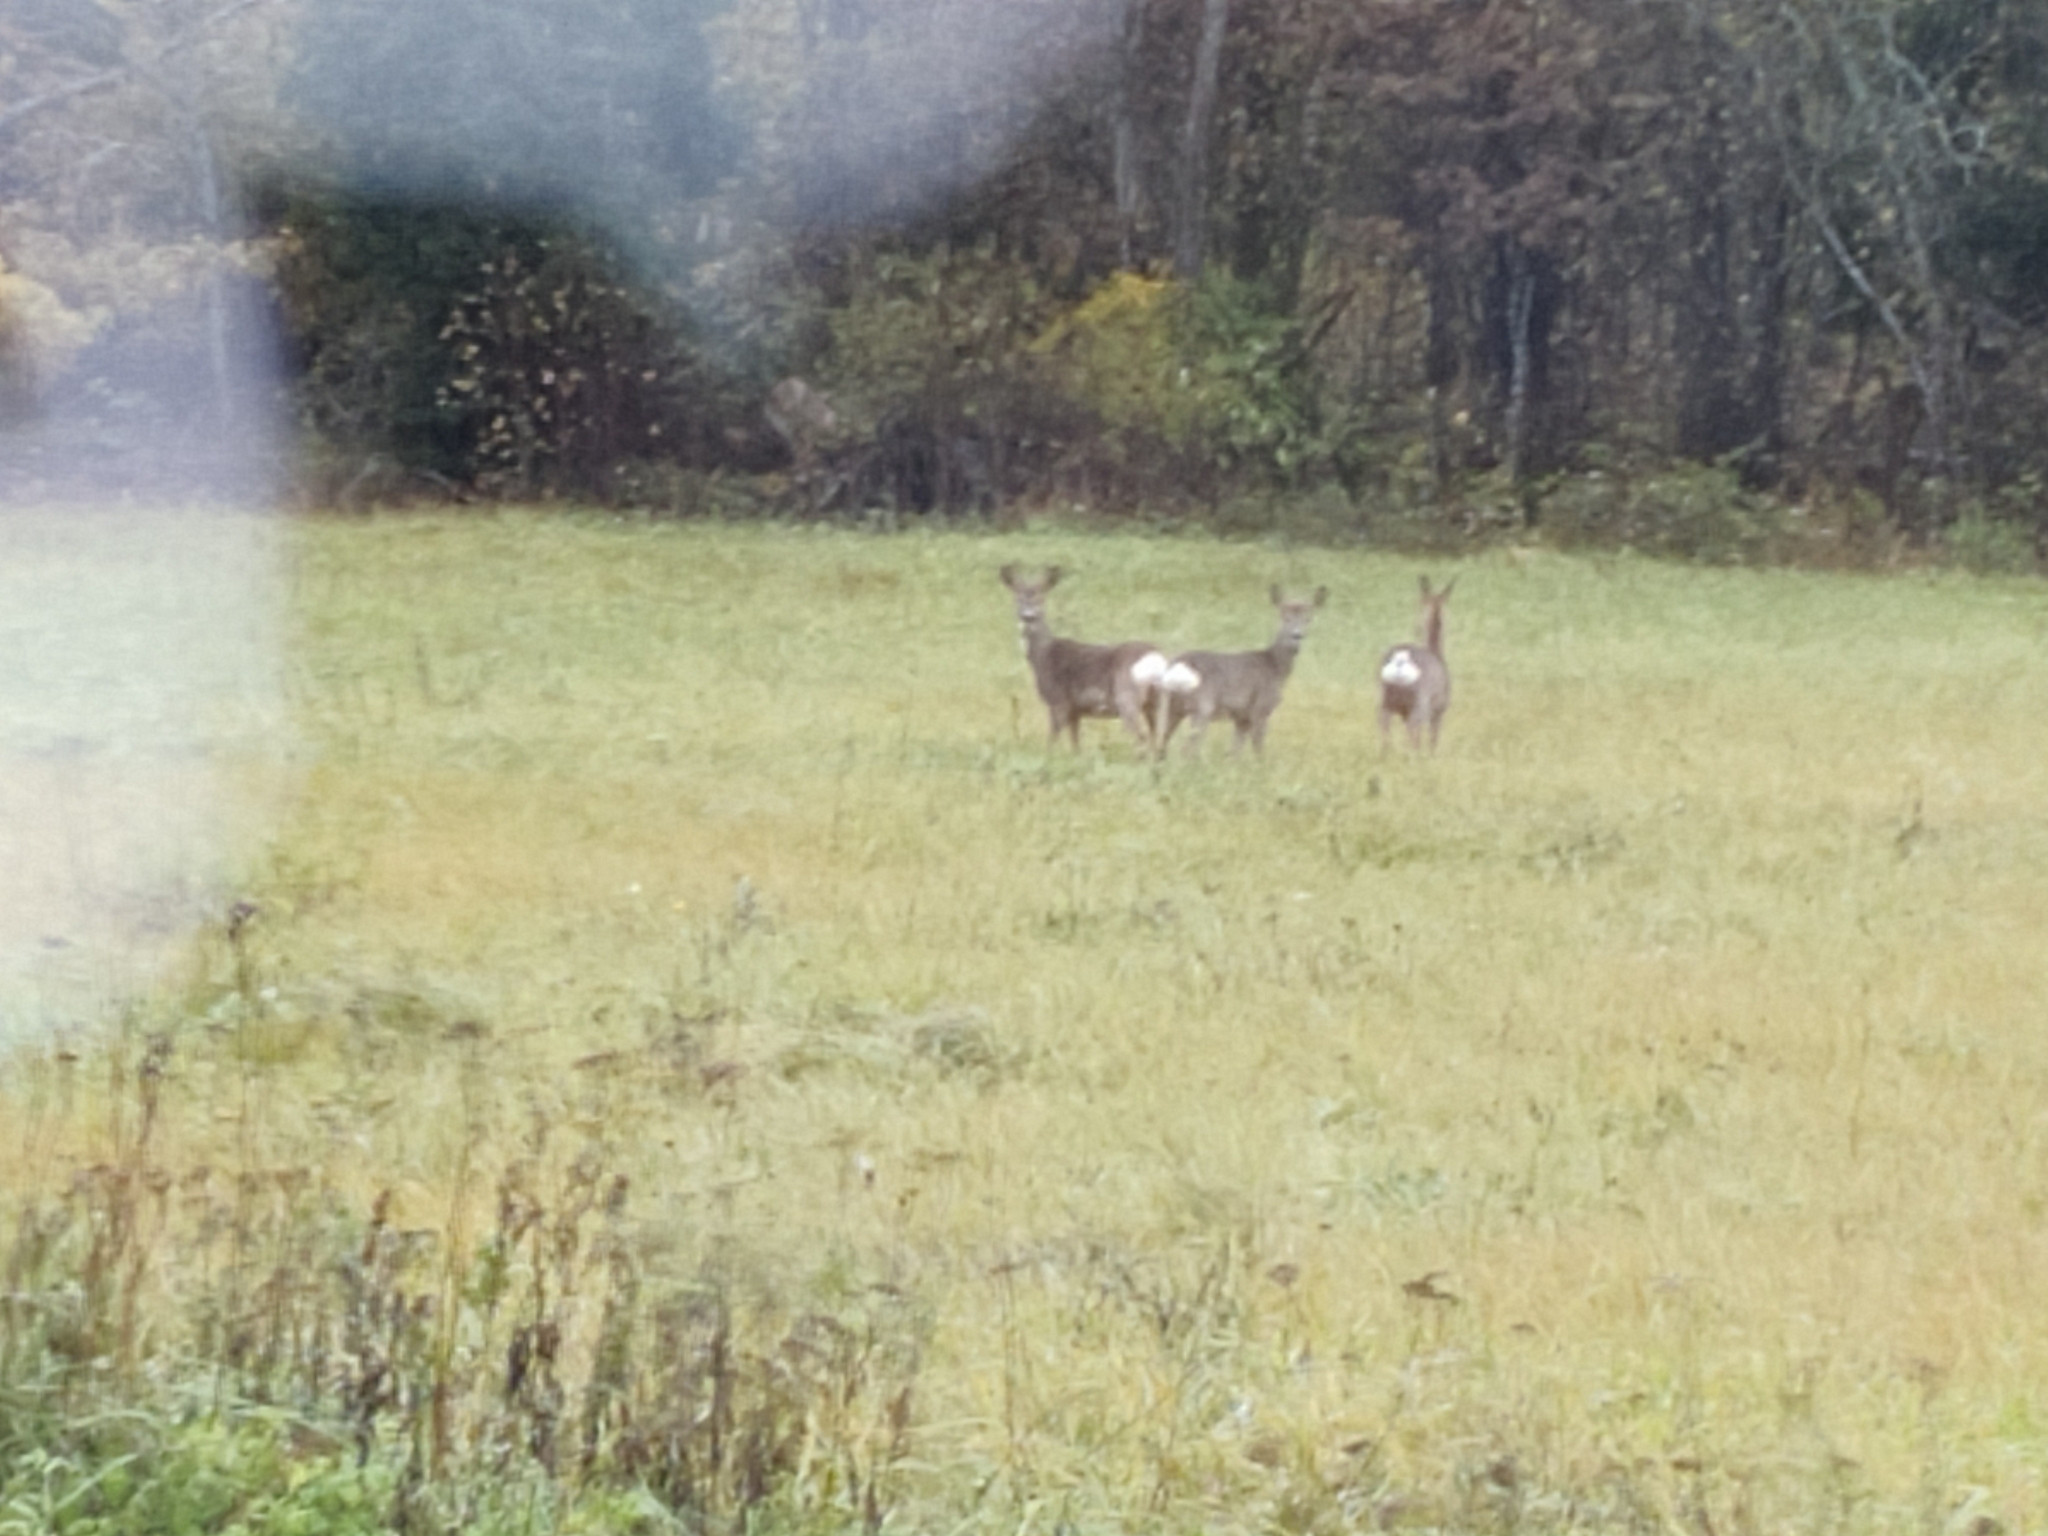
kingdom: Animalia
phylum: Chordata
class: Mammalia
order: Artiodactyla
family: Cervidae
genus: Capreolus
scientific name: Capreolus capreolus
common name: Western roe deer
